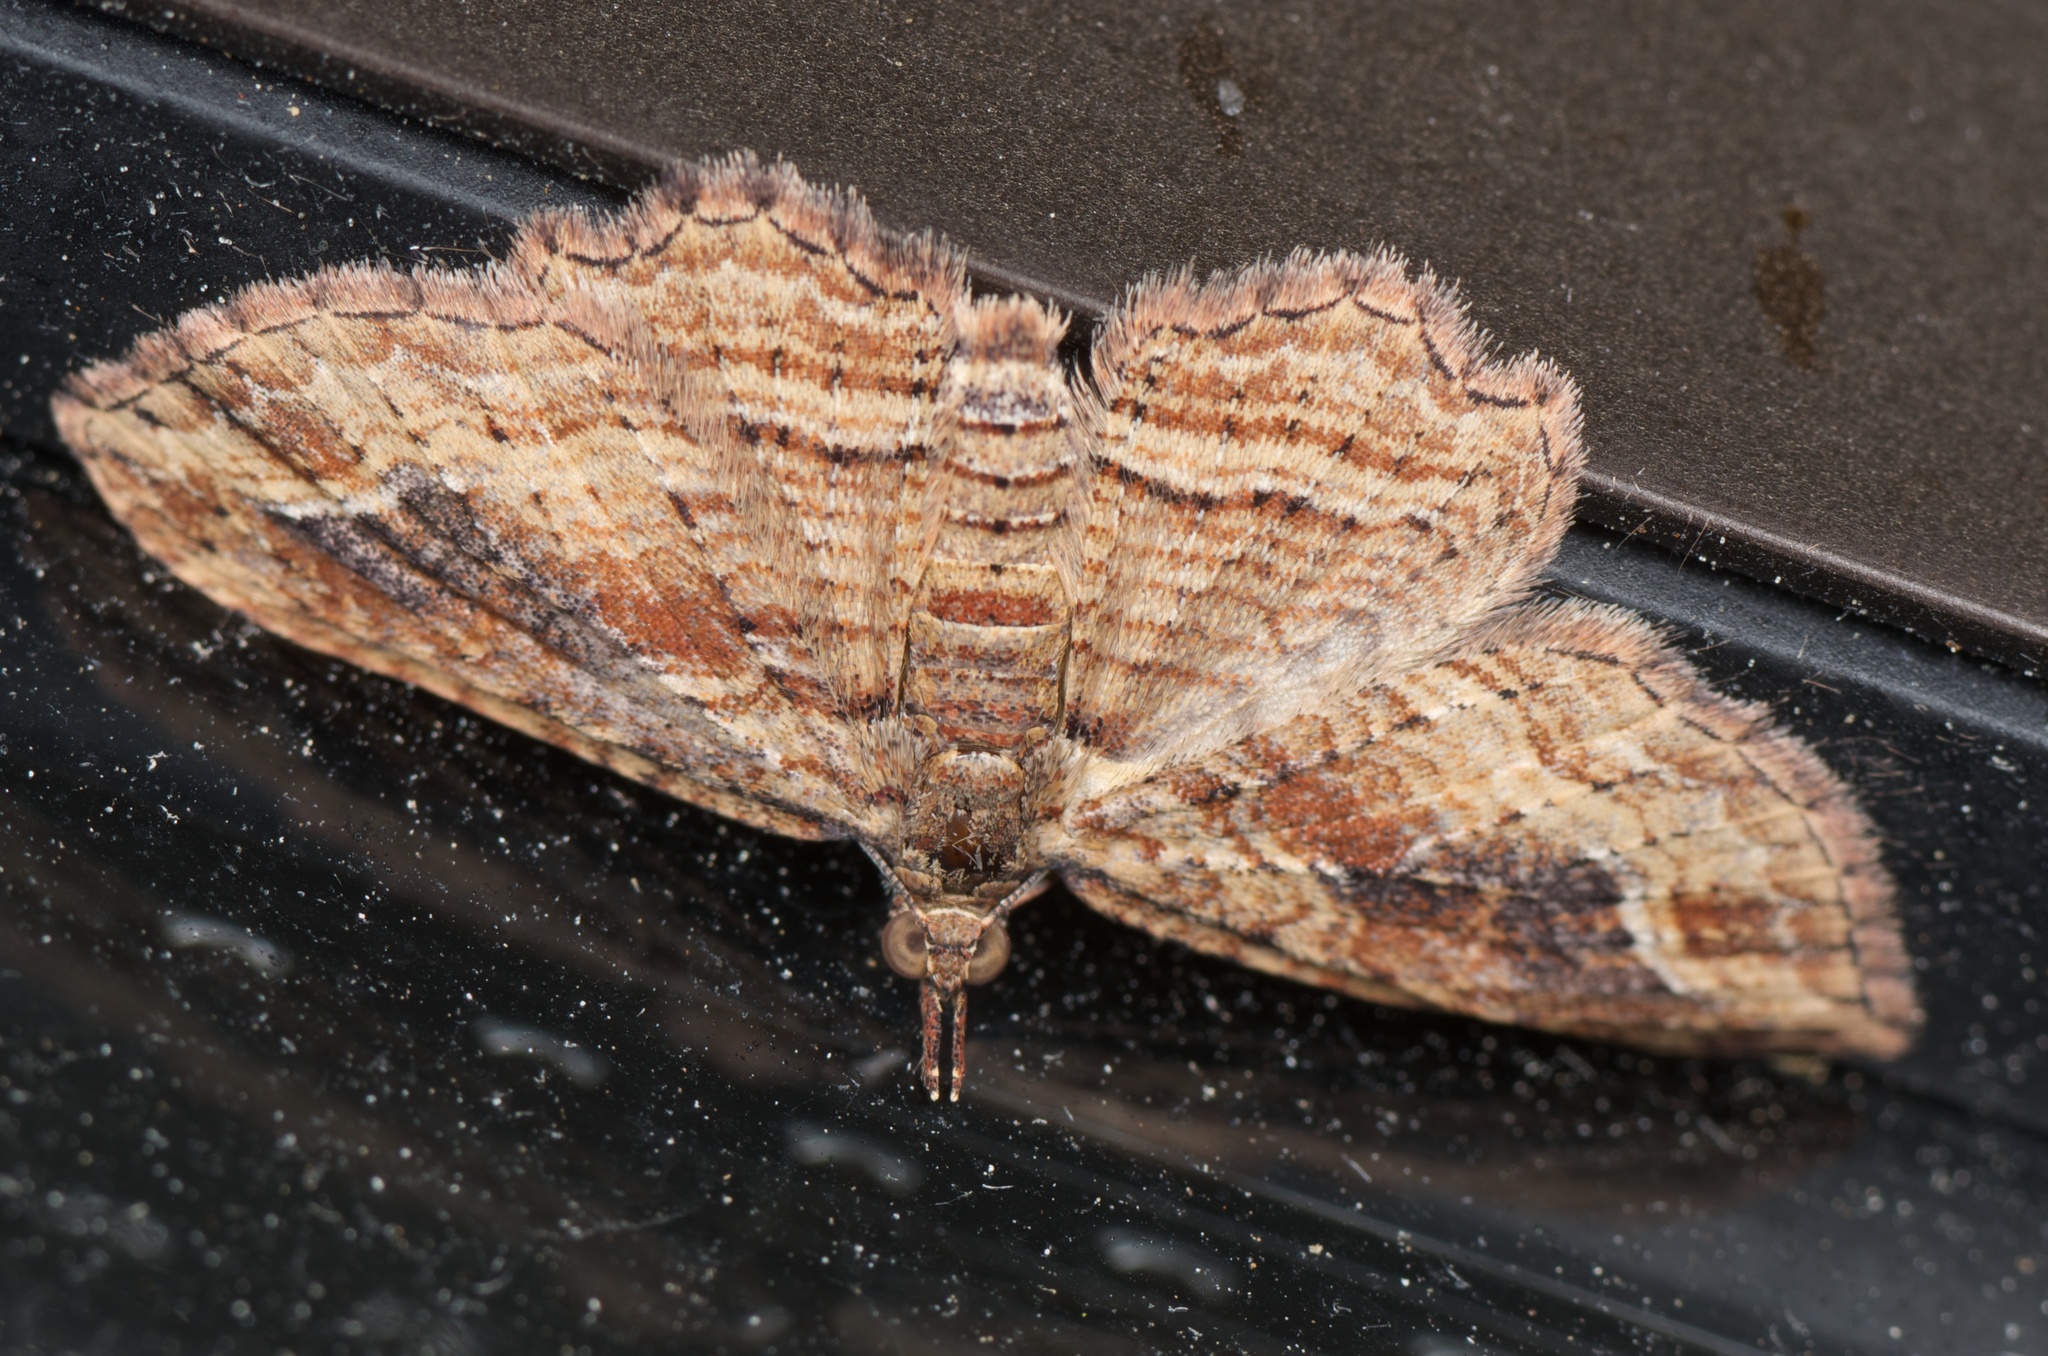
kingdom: Animalia
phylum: Arthropoda
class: Insecta
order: Lepidoptera
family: Geometridae
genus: Chloroclystis
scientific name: Chloroclystis filata
